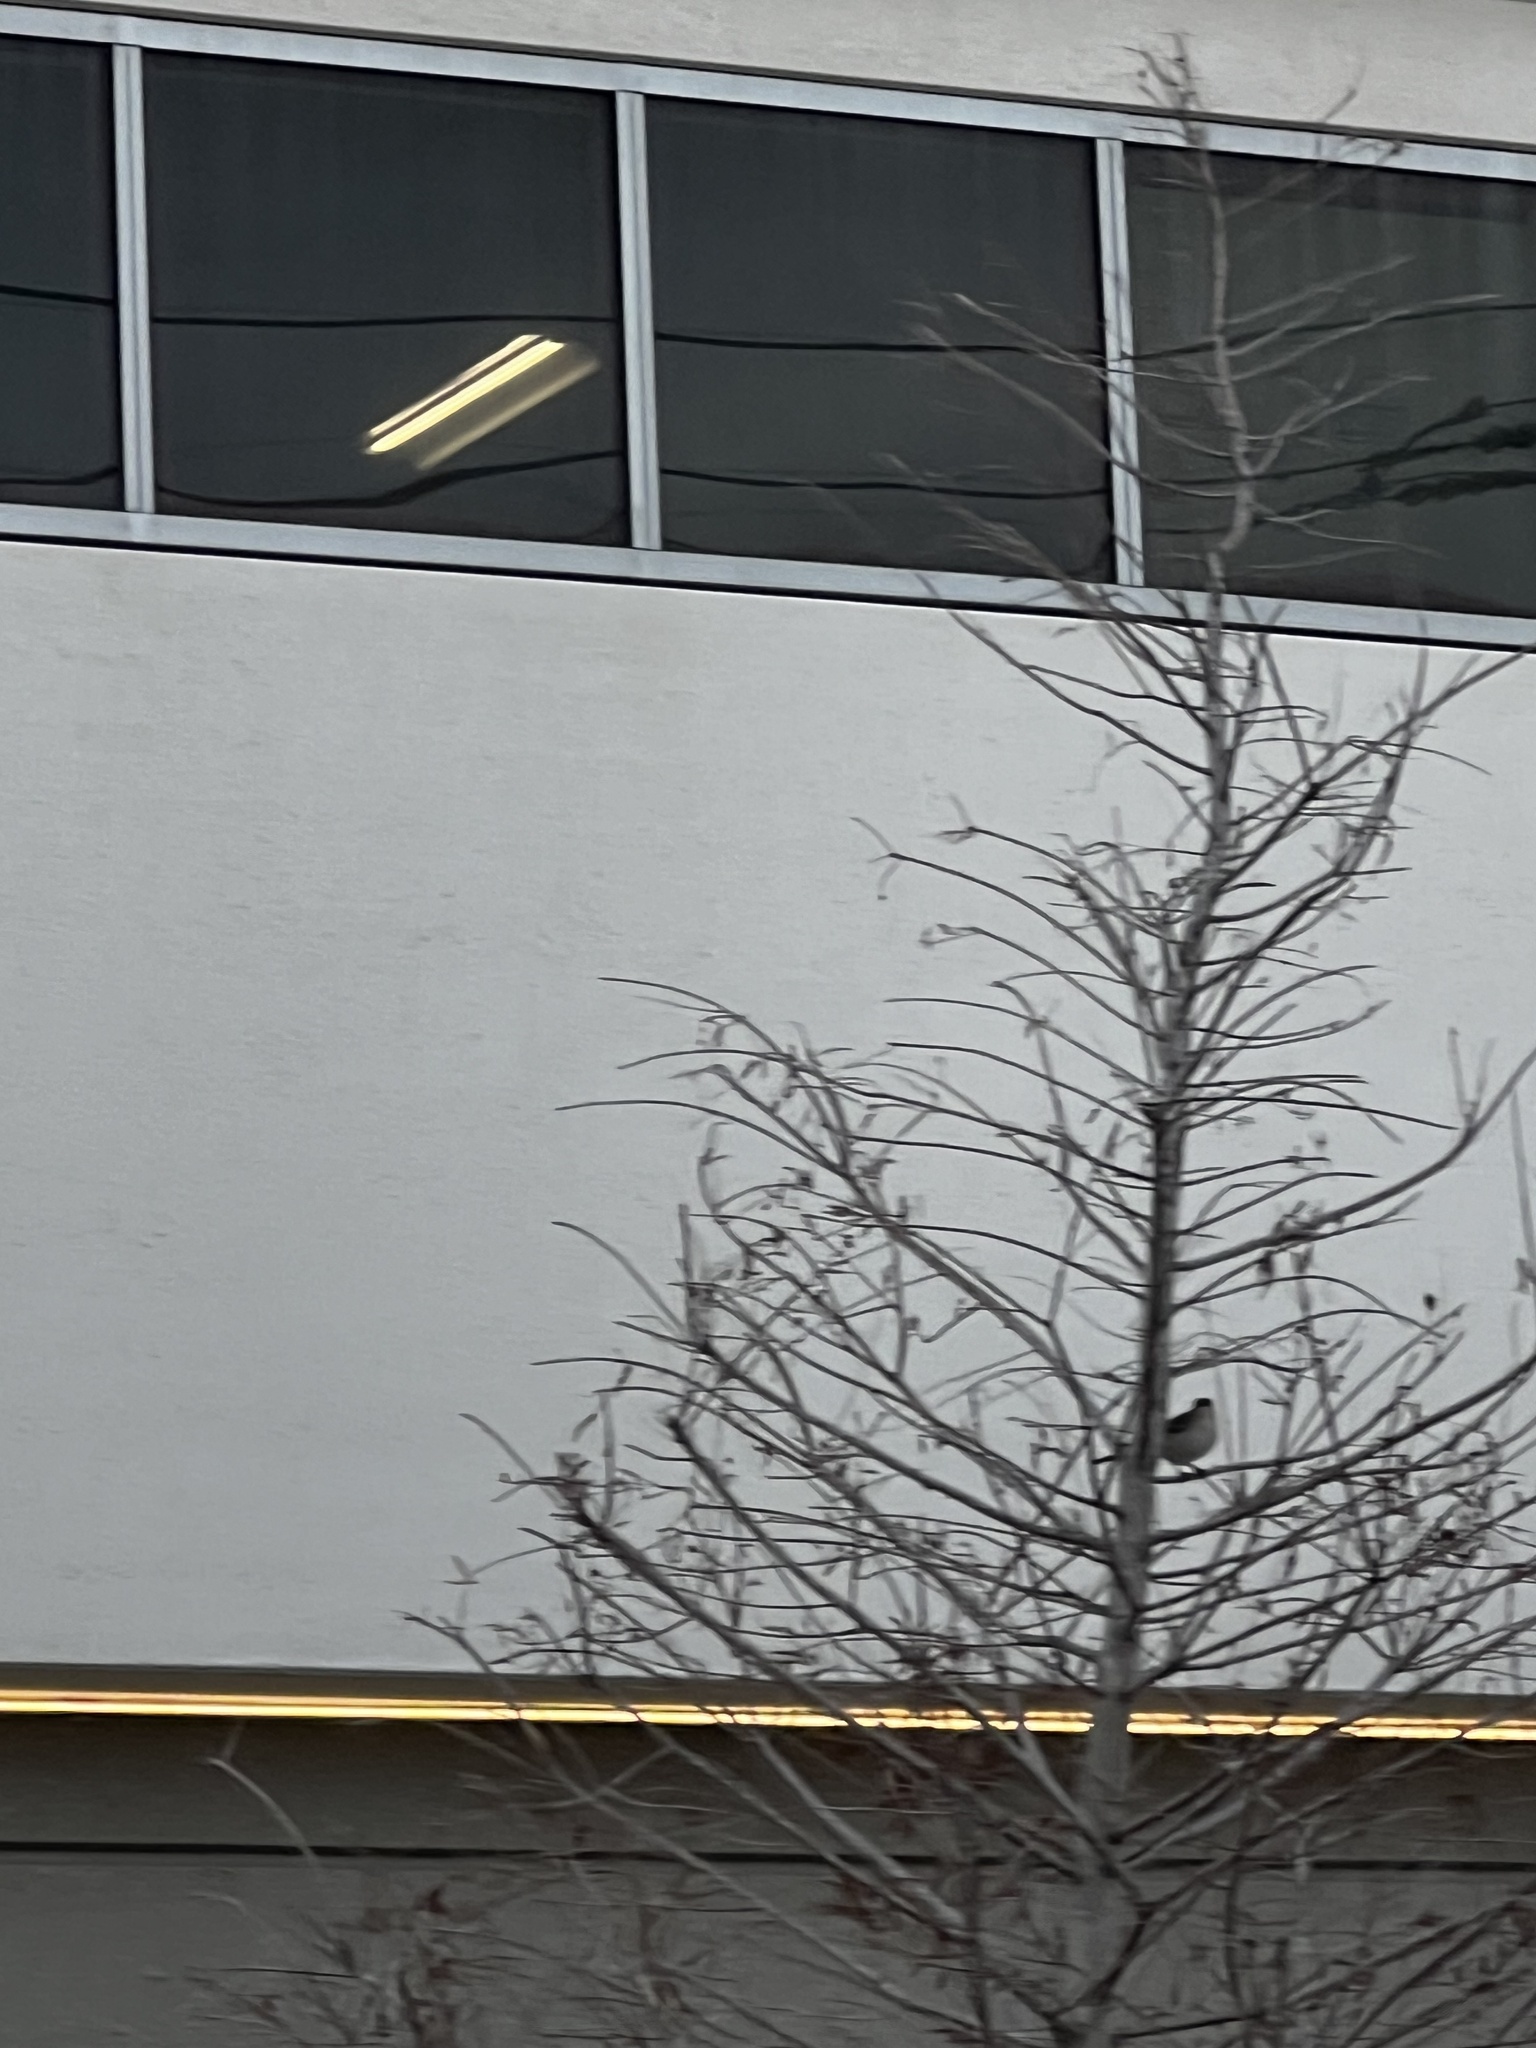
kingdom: Animalia
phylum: Chordata
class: Aves
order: Passeriformes
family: Mimidae
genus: Mimus
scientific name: Mimus polyglottos
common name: Northern mockingbird
